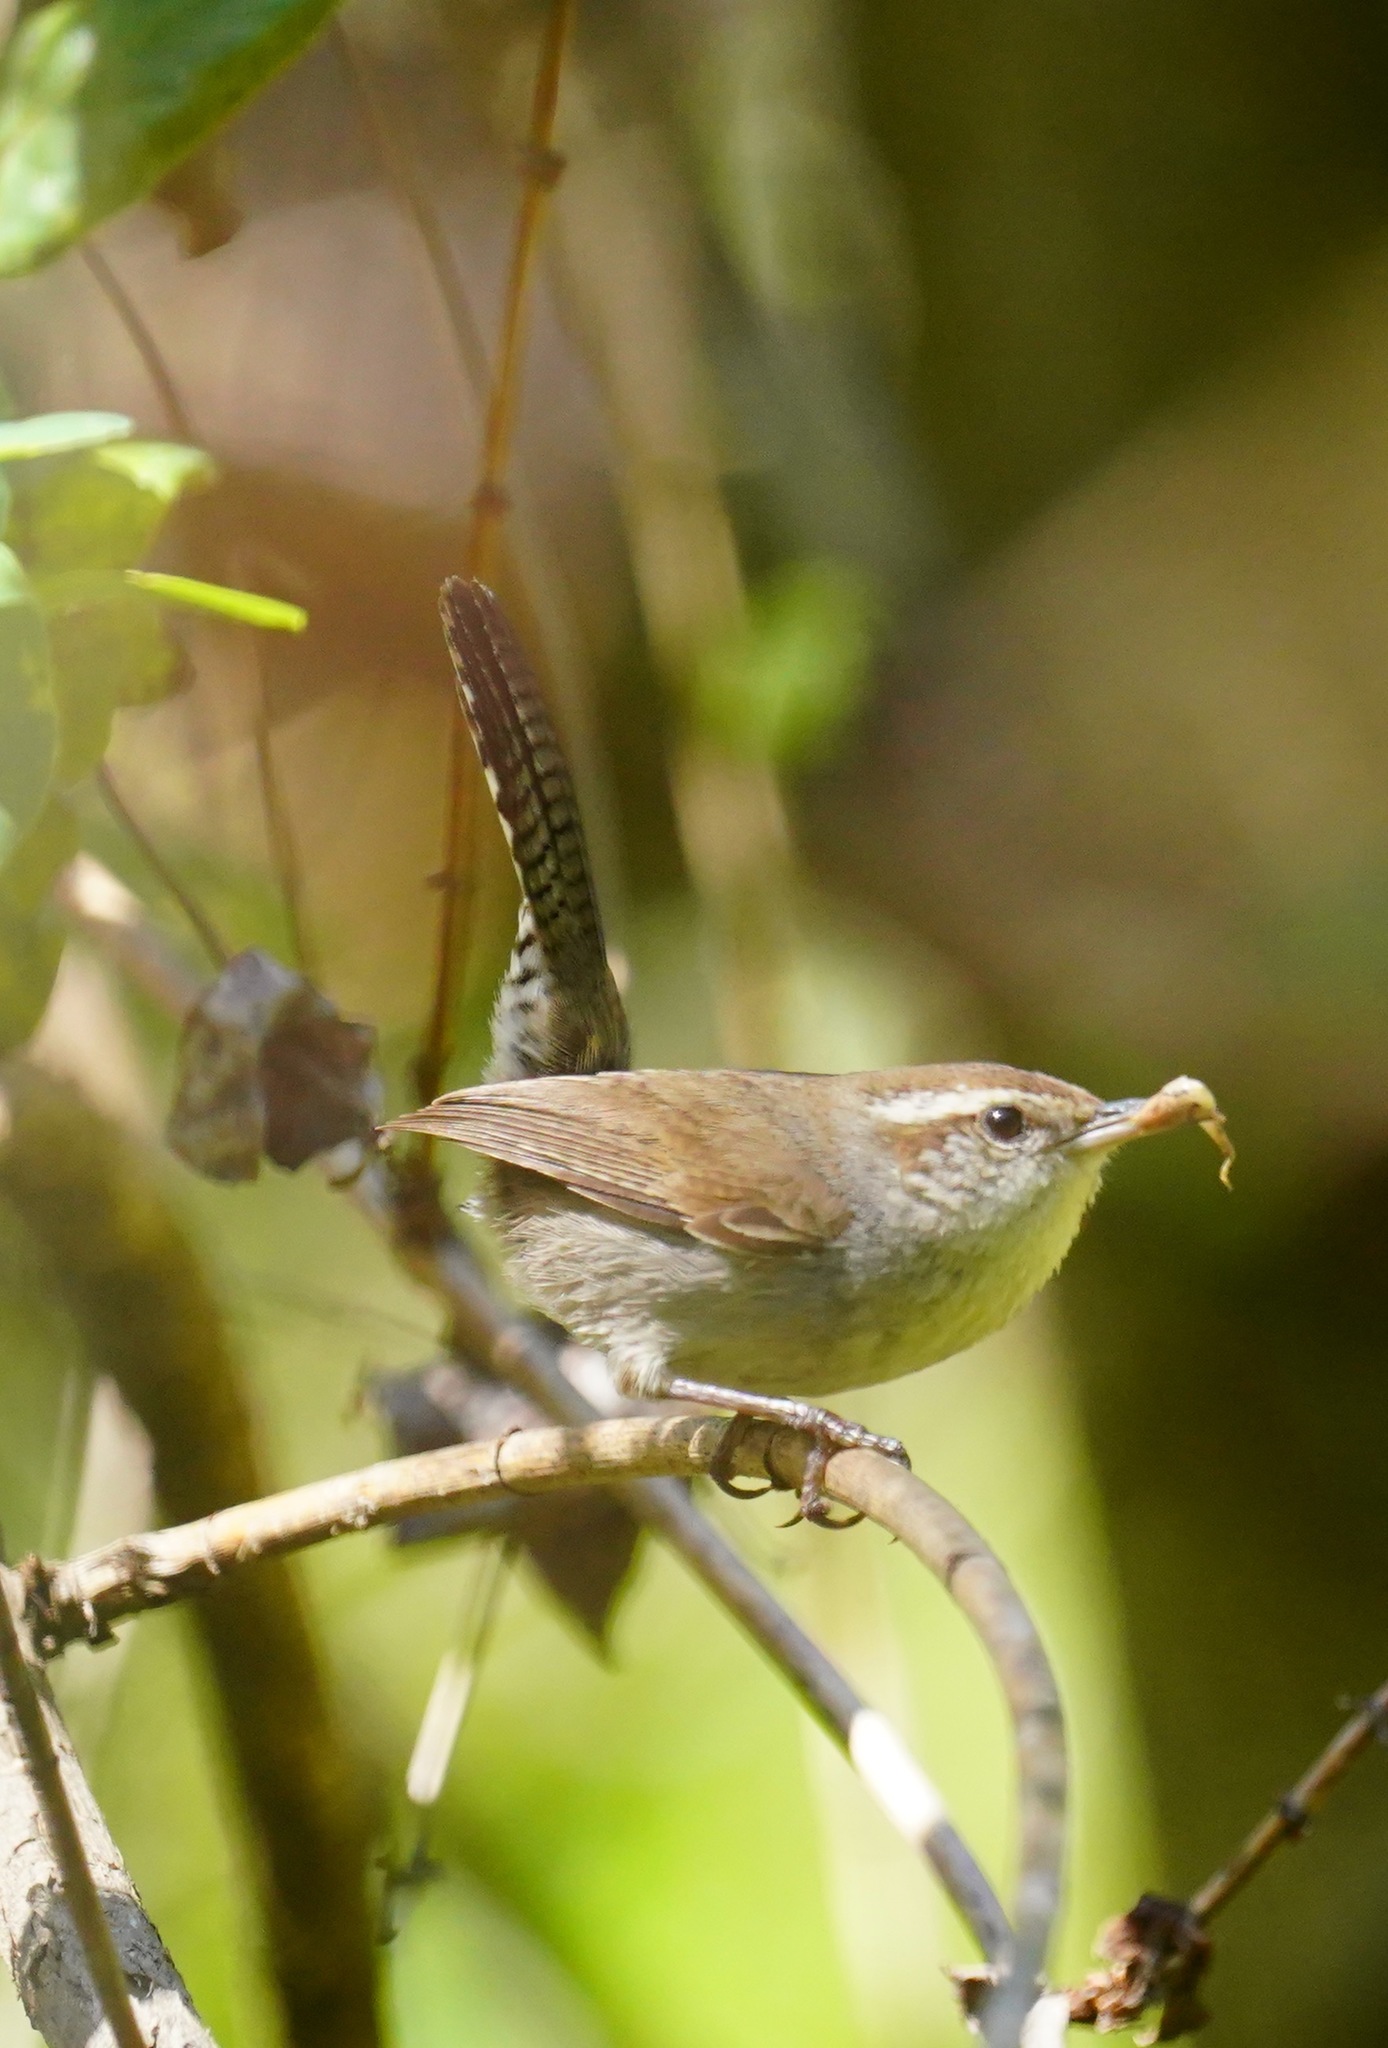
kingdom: Animalia
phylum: Chordata
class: Aves
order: Passeriformes
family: Troglodytidae
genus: Thryomanes
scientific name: Thryomanes bewickii
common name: Bewick's wren
